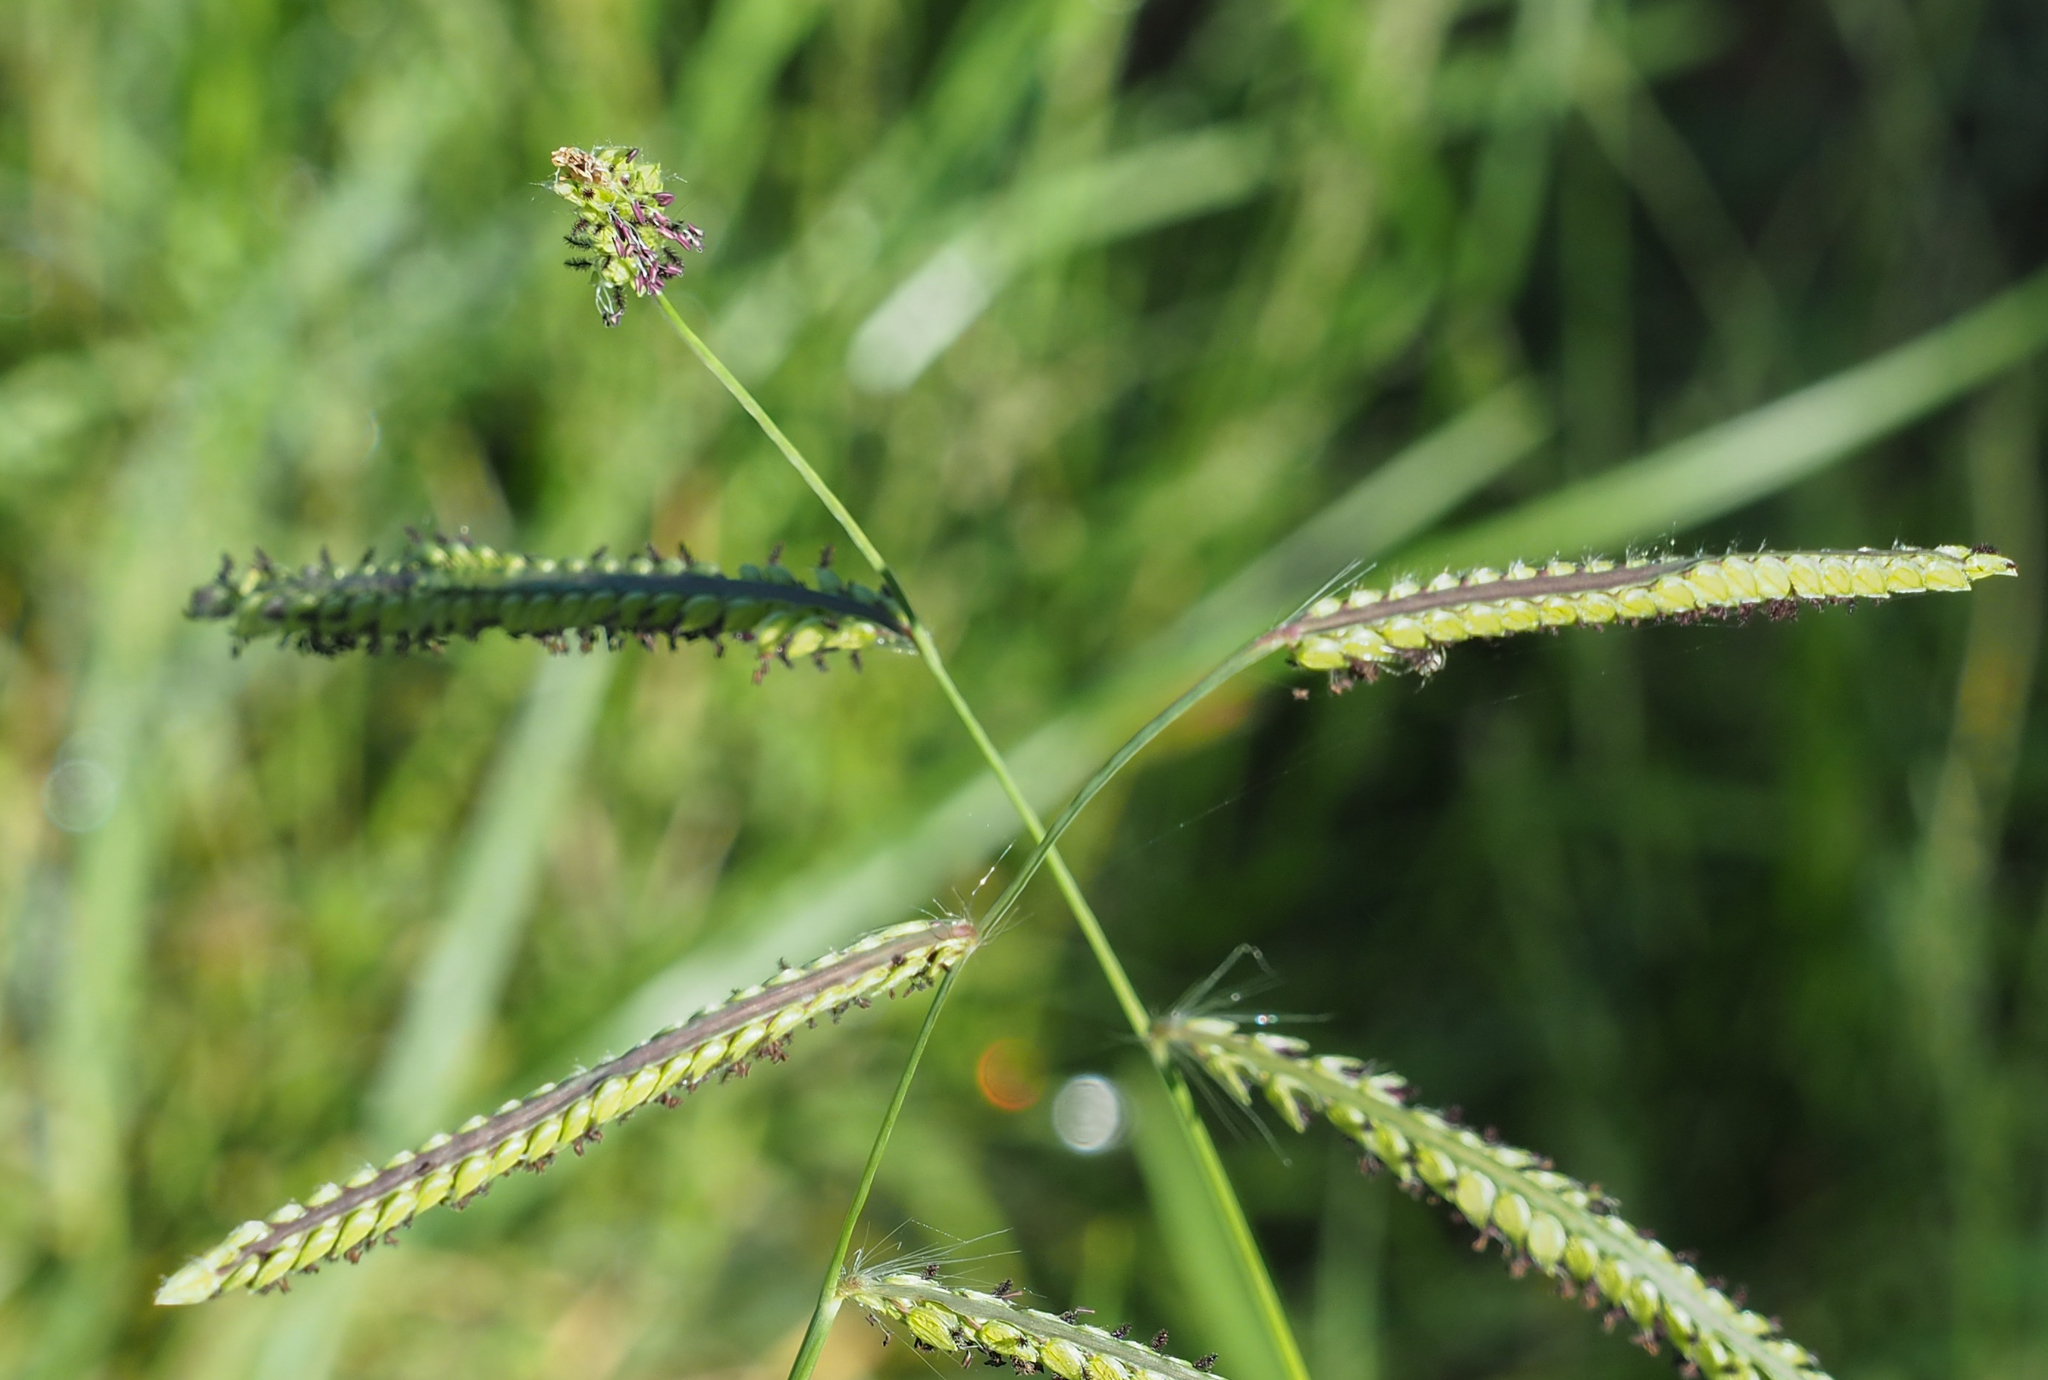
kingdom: Plantae
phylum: Tracheophyta
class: Liliopsida
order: Poales
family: Poaceae
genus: Paspalum
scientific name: Paspalum dilatatum
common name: Dallisgrass
